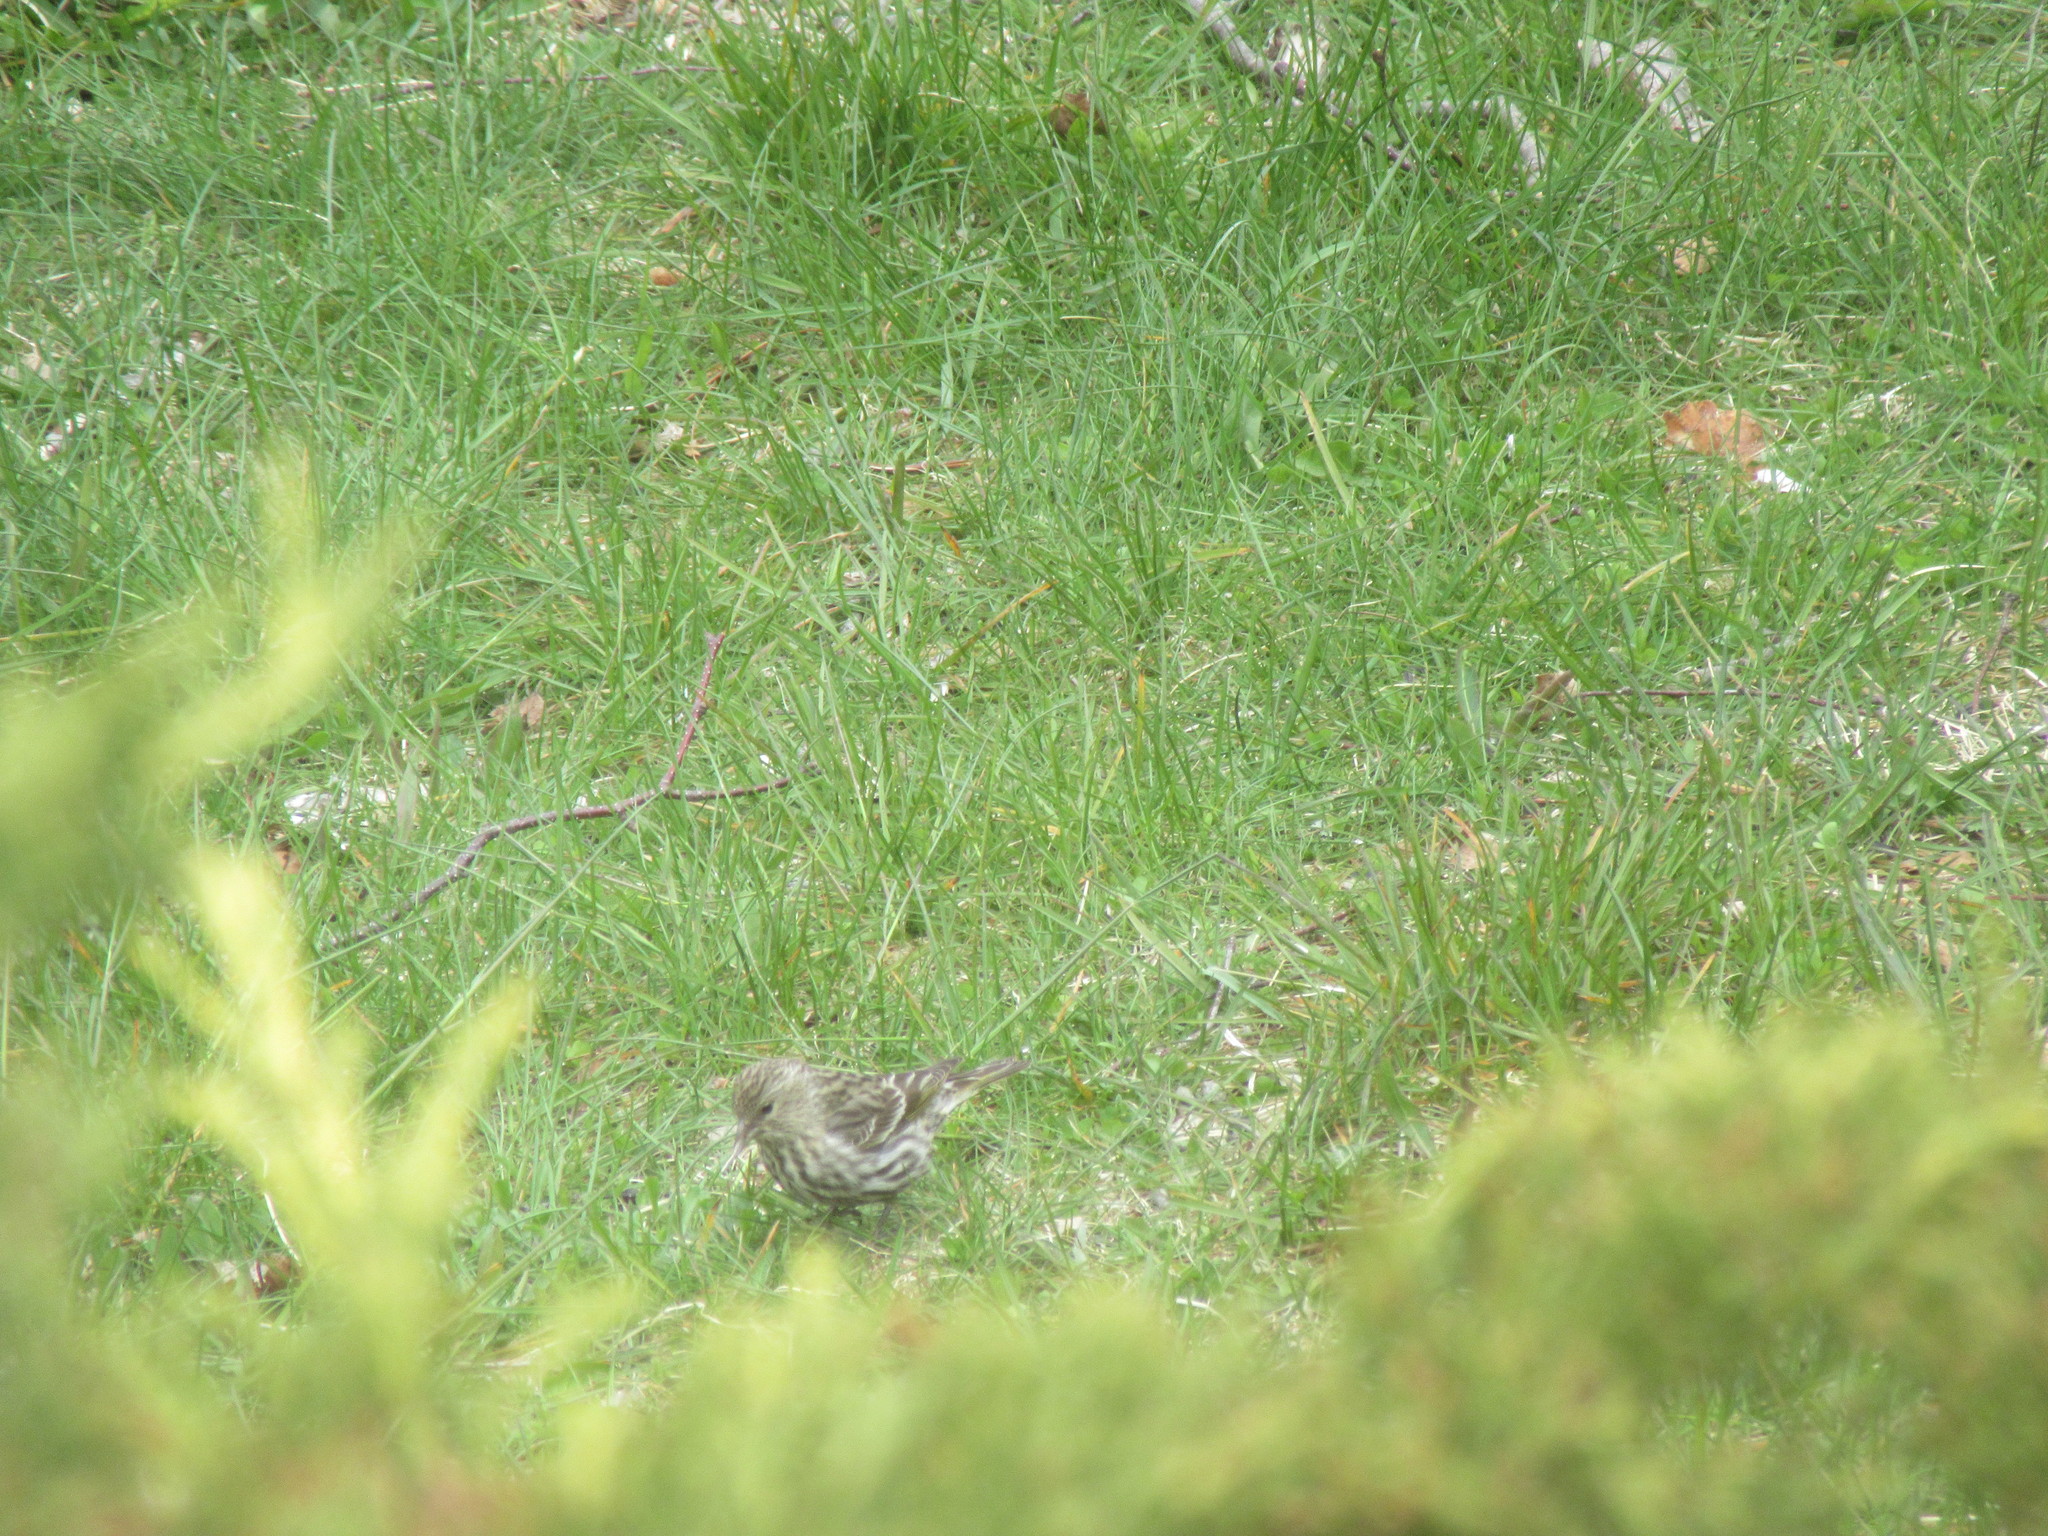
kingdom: Animalia
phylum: Chordata
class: Aves
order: Passeriformes
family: Fringillidae
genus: Spinus
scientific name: Spinus pinus
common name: Pine siskin
